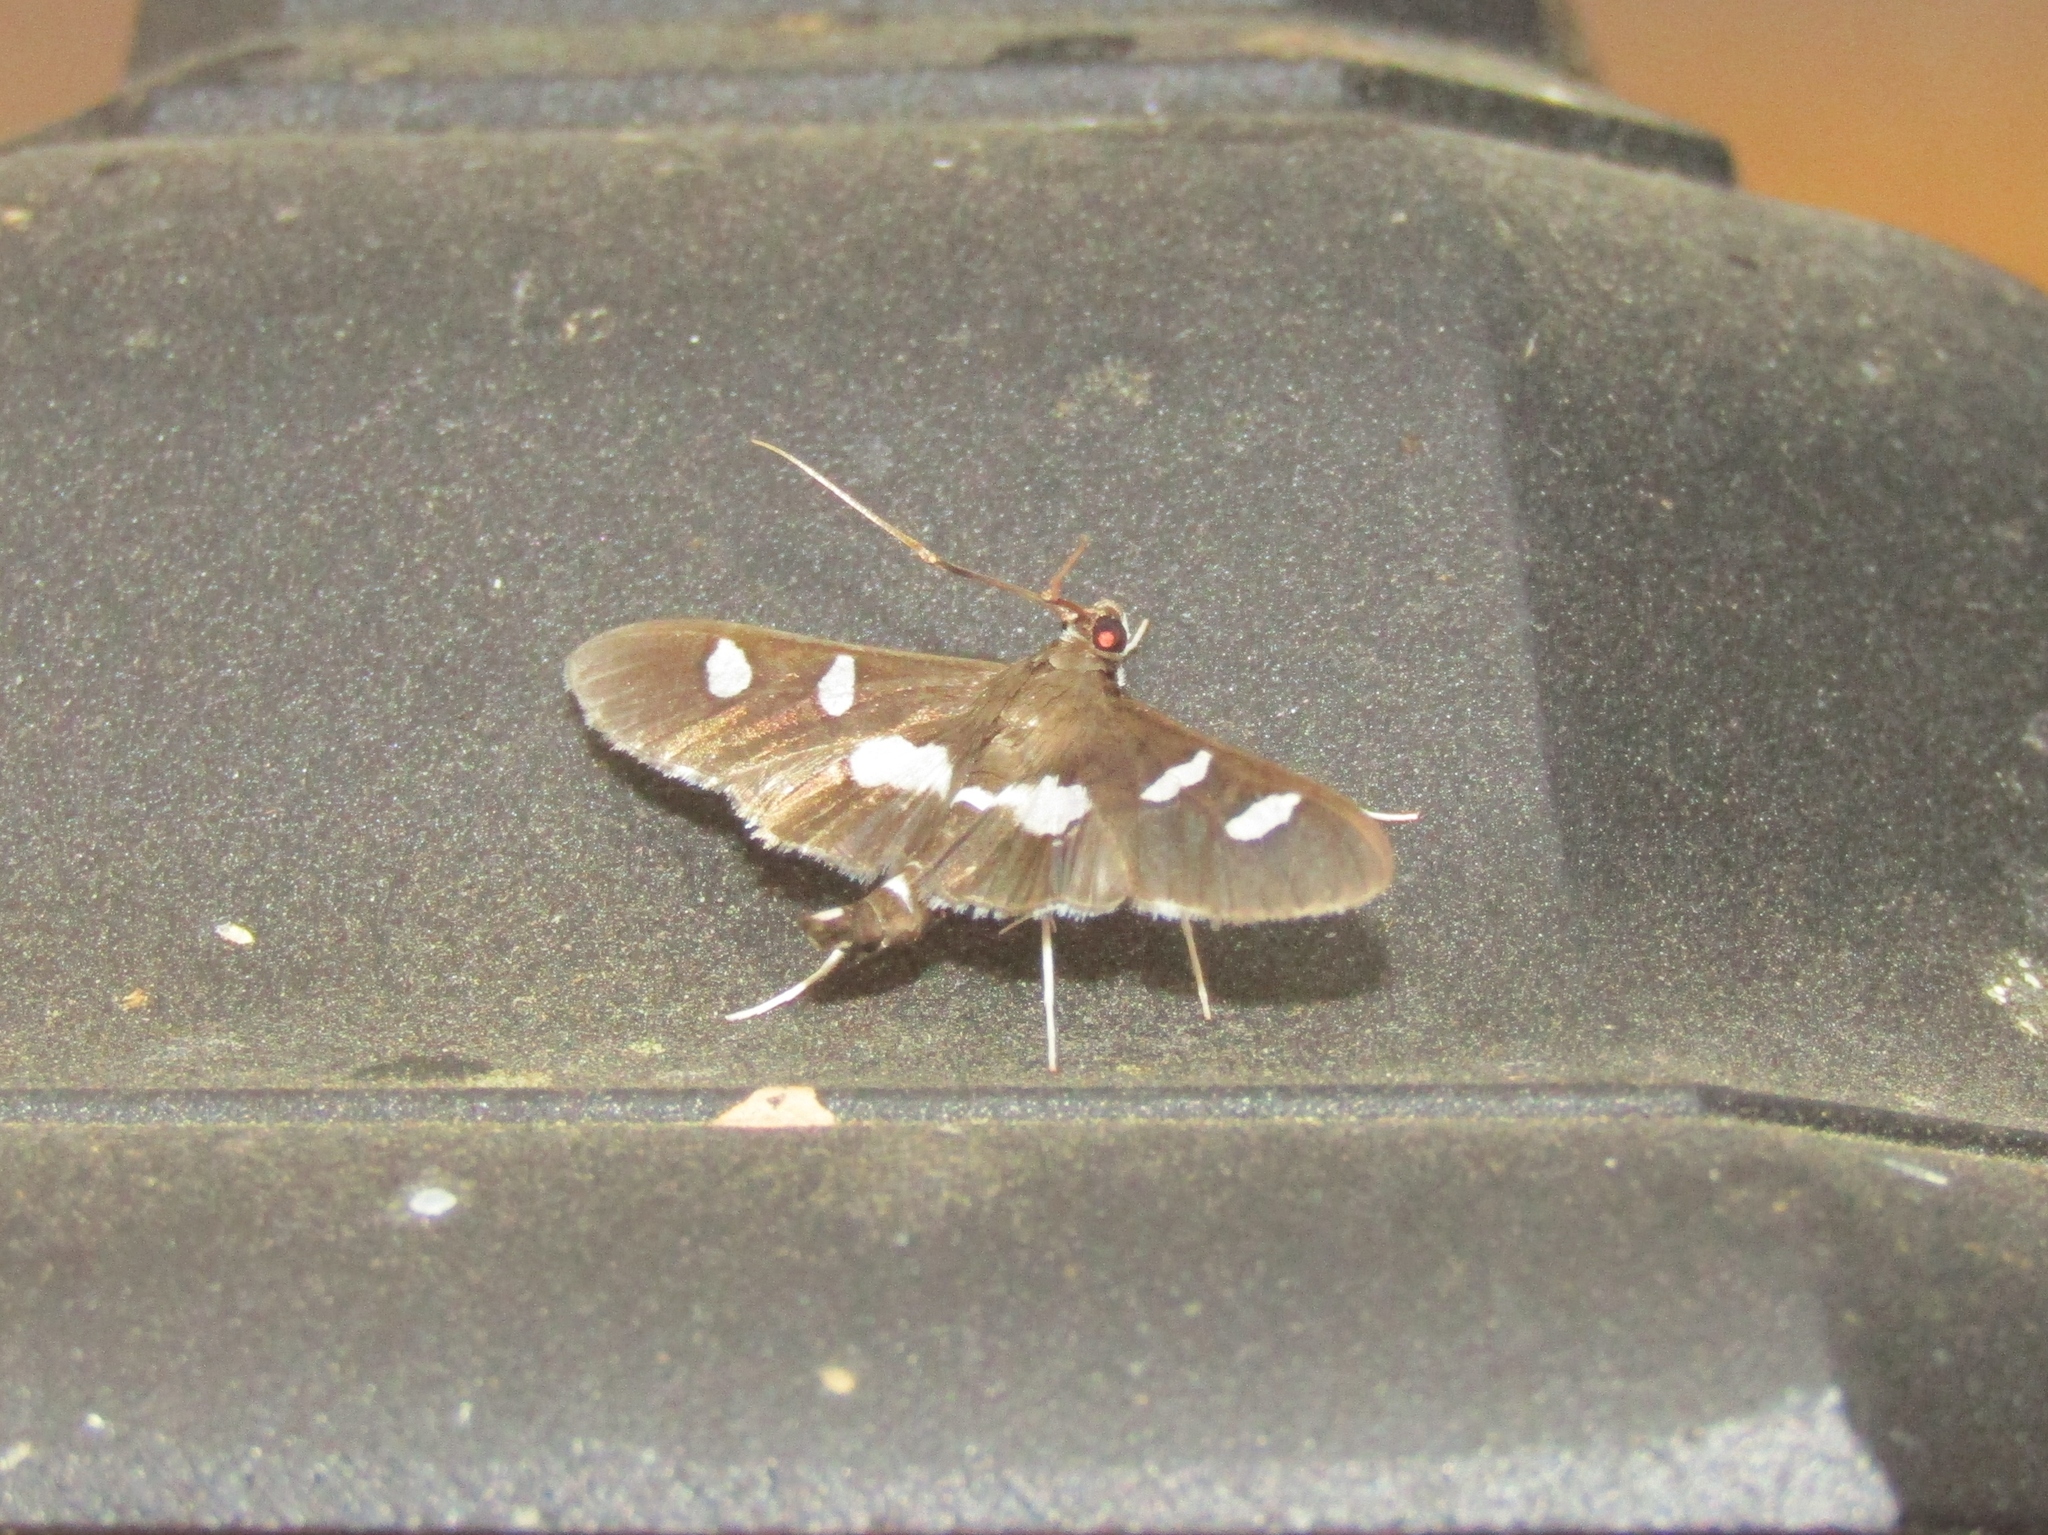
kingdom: Animalia
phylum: Arthropoda
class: Insecta
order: Lepidoptera
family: Crambidae
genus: Desmia
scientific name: Desmia
